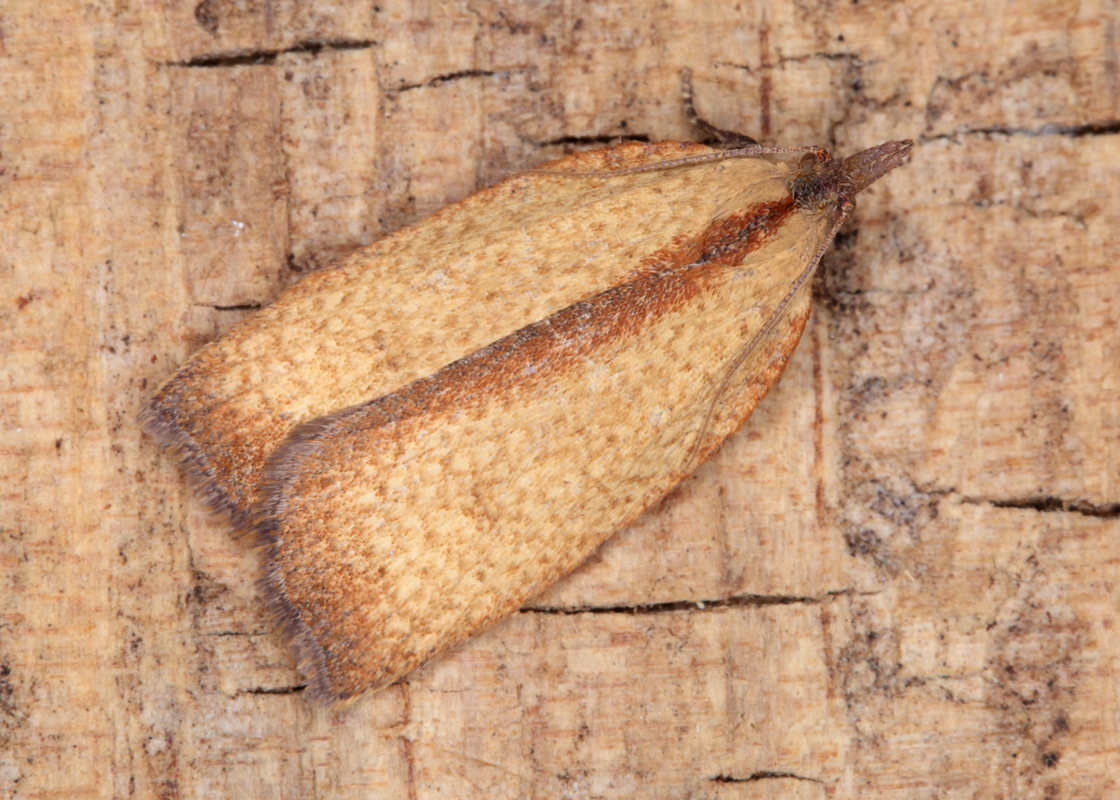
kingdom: Animalia
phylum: Arthropoda
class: Insecta
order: Lepidoptera
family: Tortricidae
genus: Planotortrix
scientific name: Planotortrix octoides
